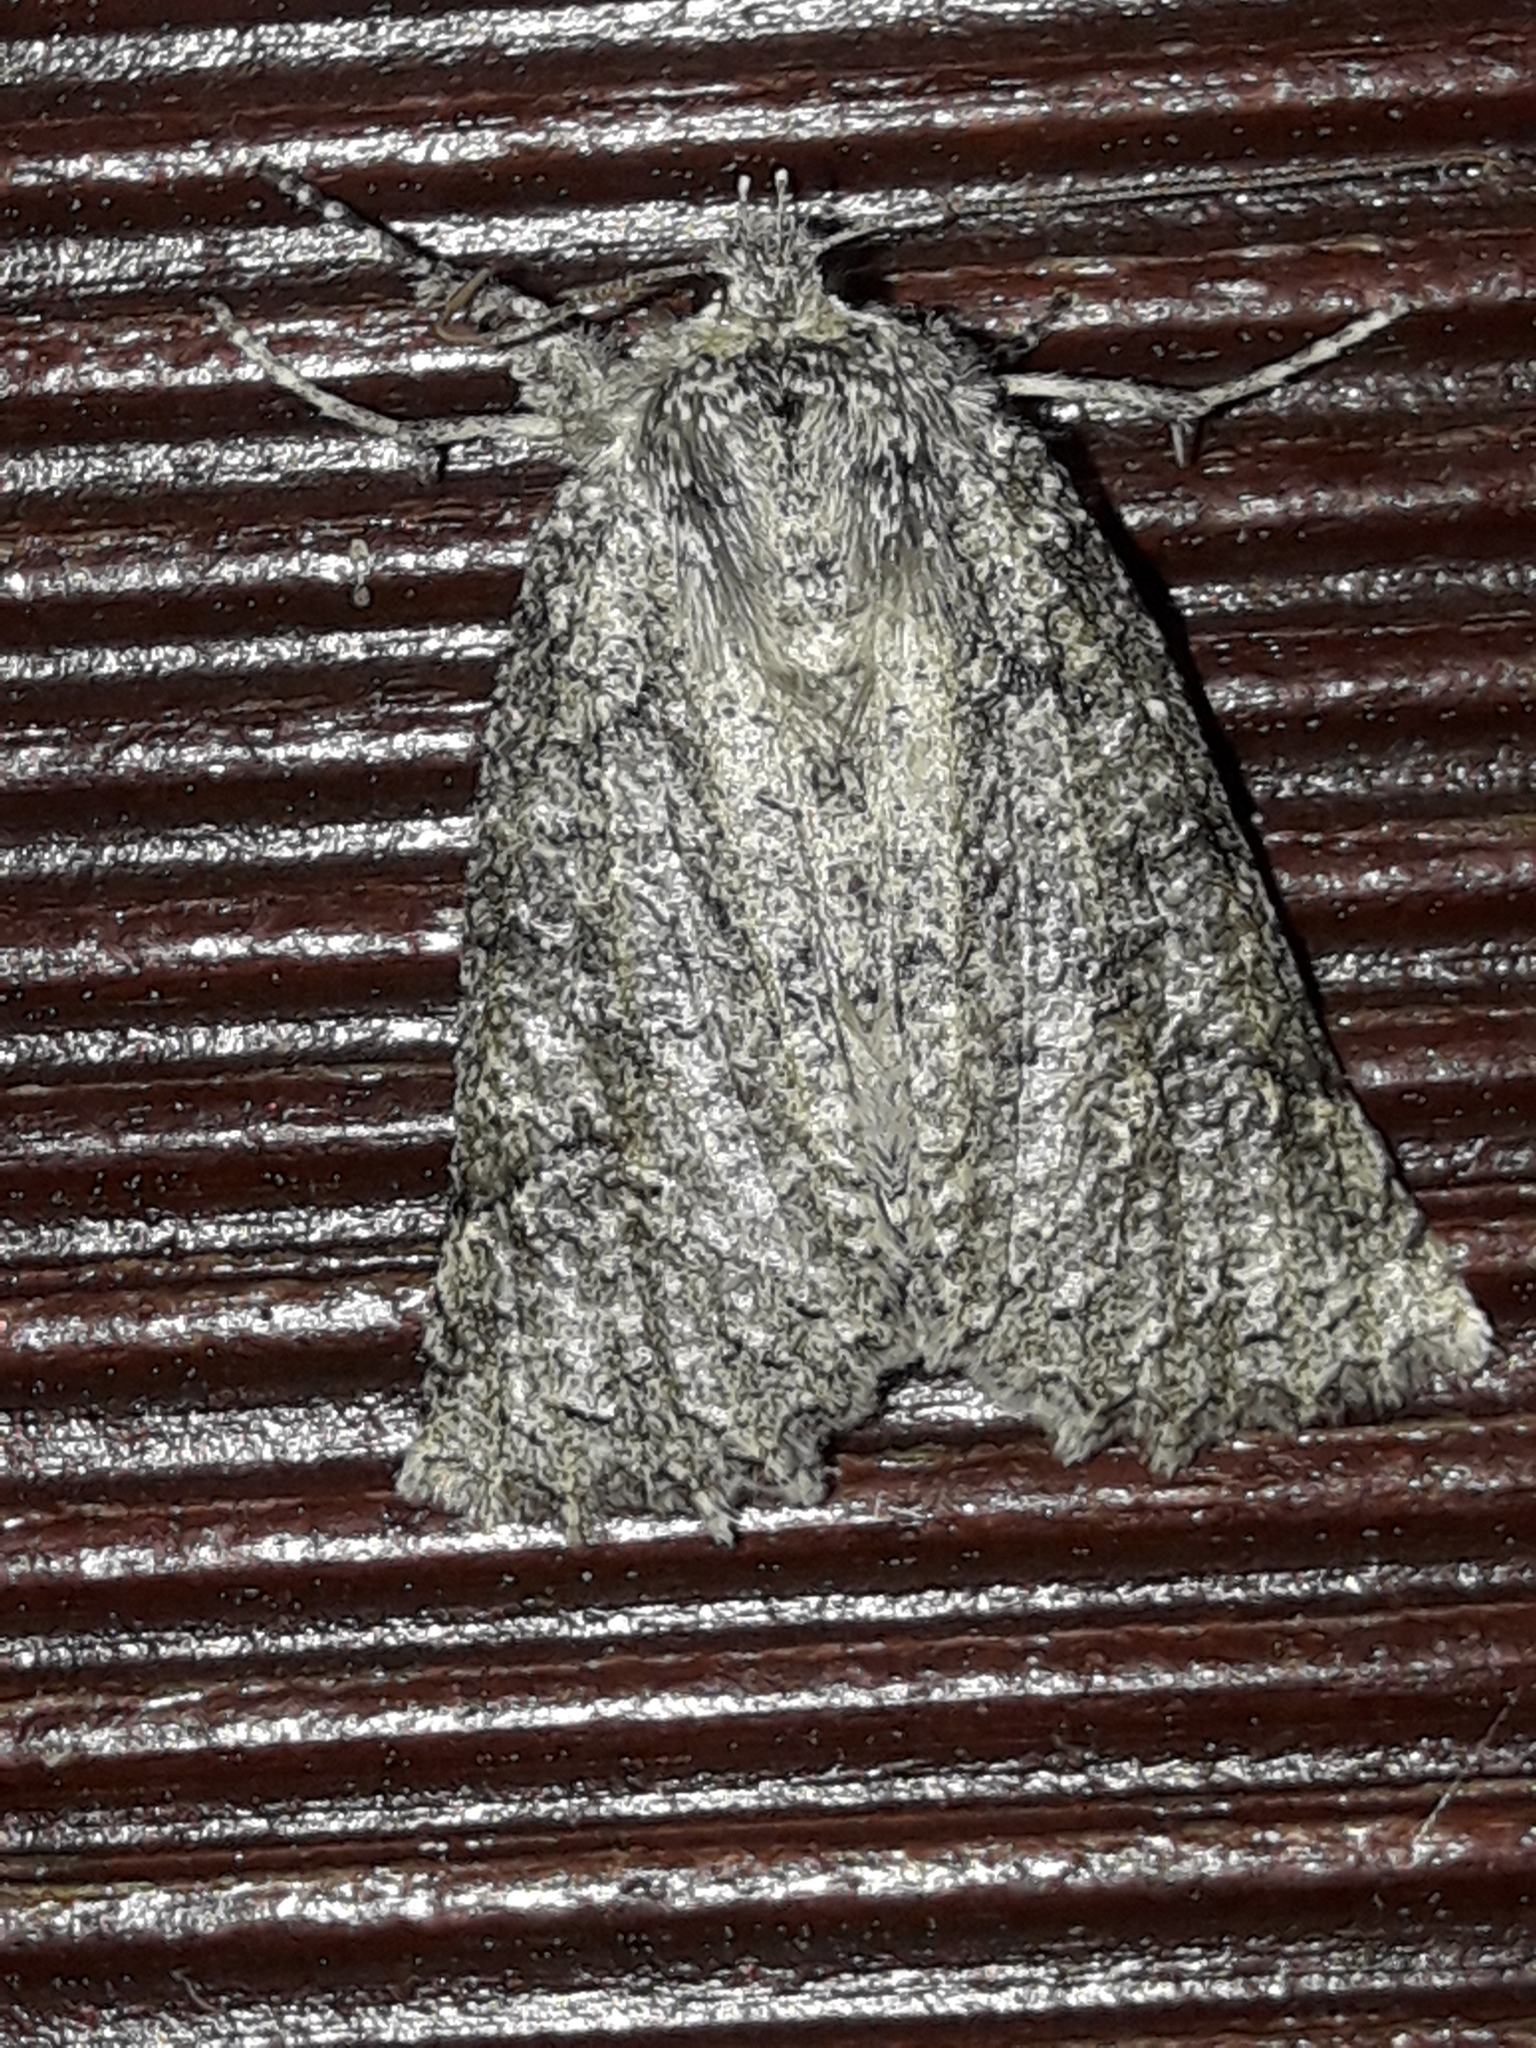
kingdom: Animalia
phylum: Arthropoda
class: Insecta
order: Lepidoptera
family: Geometridae
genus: Declana
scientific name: Declana floccosa
